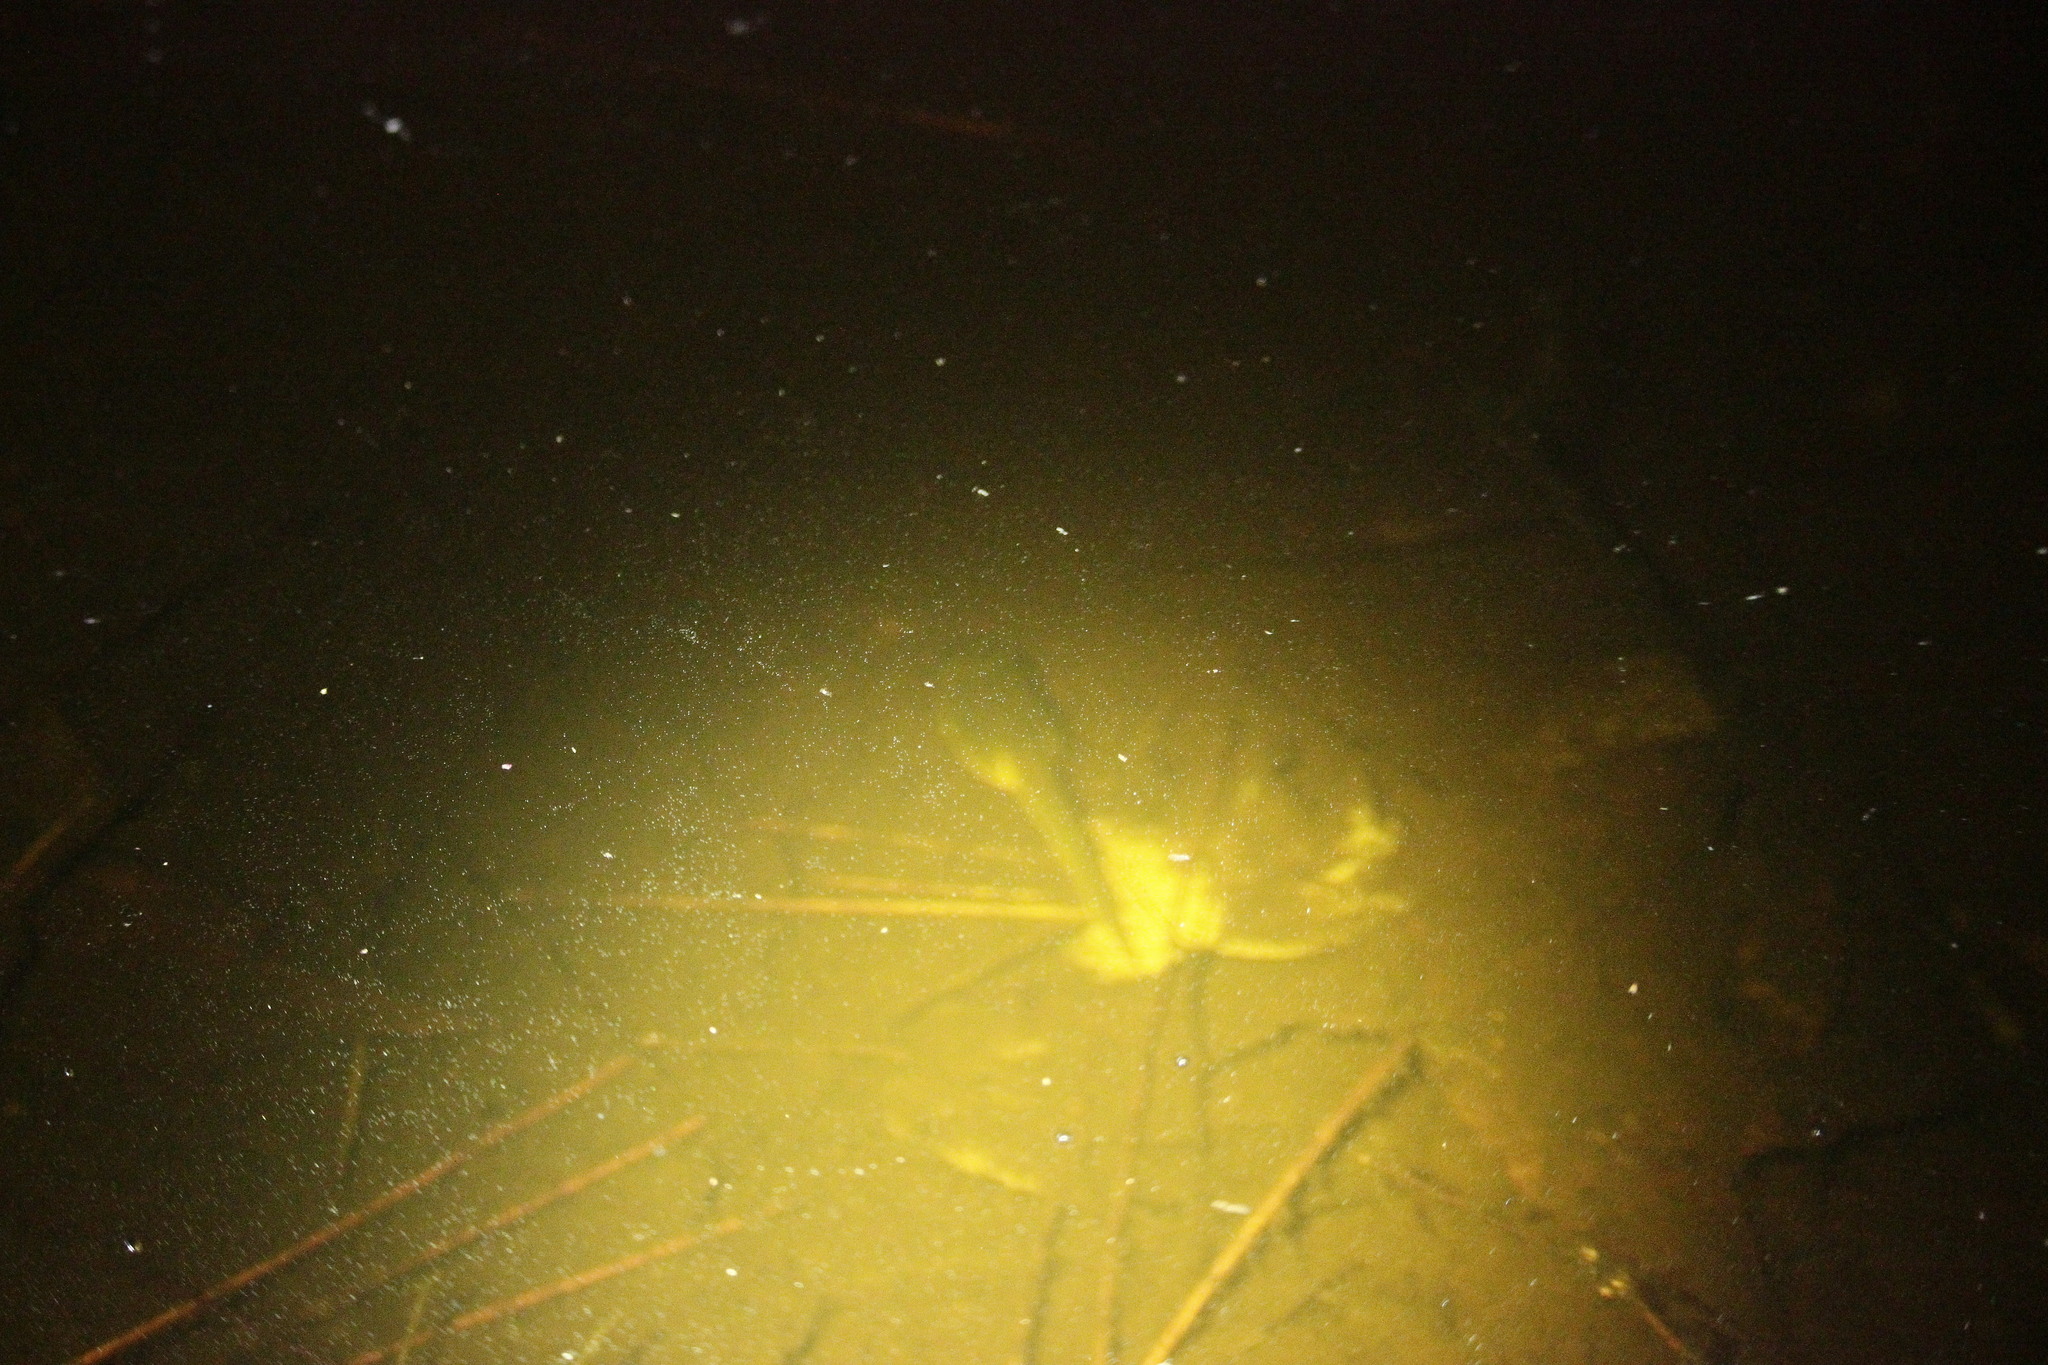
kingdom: Animalia
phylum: Chordata
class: Amphibia
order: Anura
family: Ranidae
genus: Lithobates
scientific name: Lithobates catesbeianus
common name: American bullfrog
